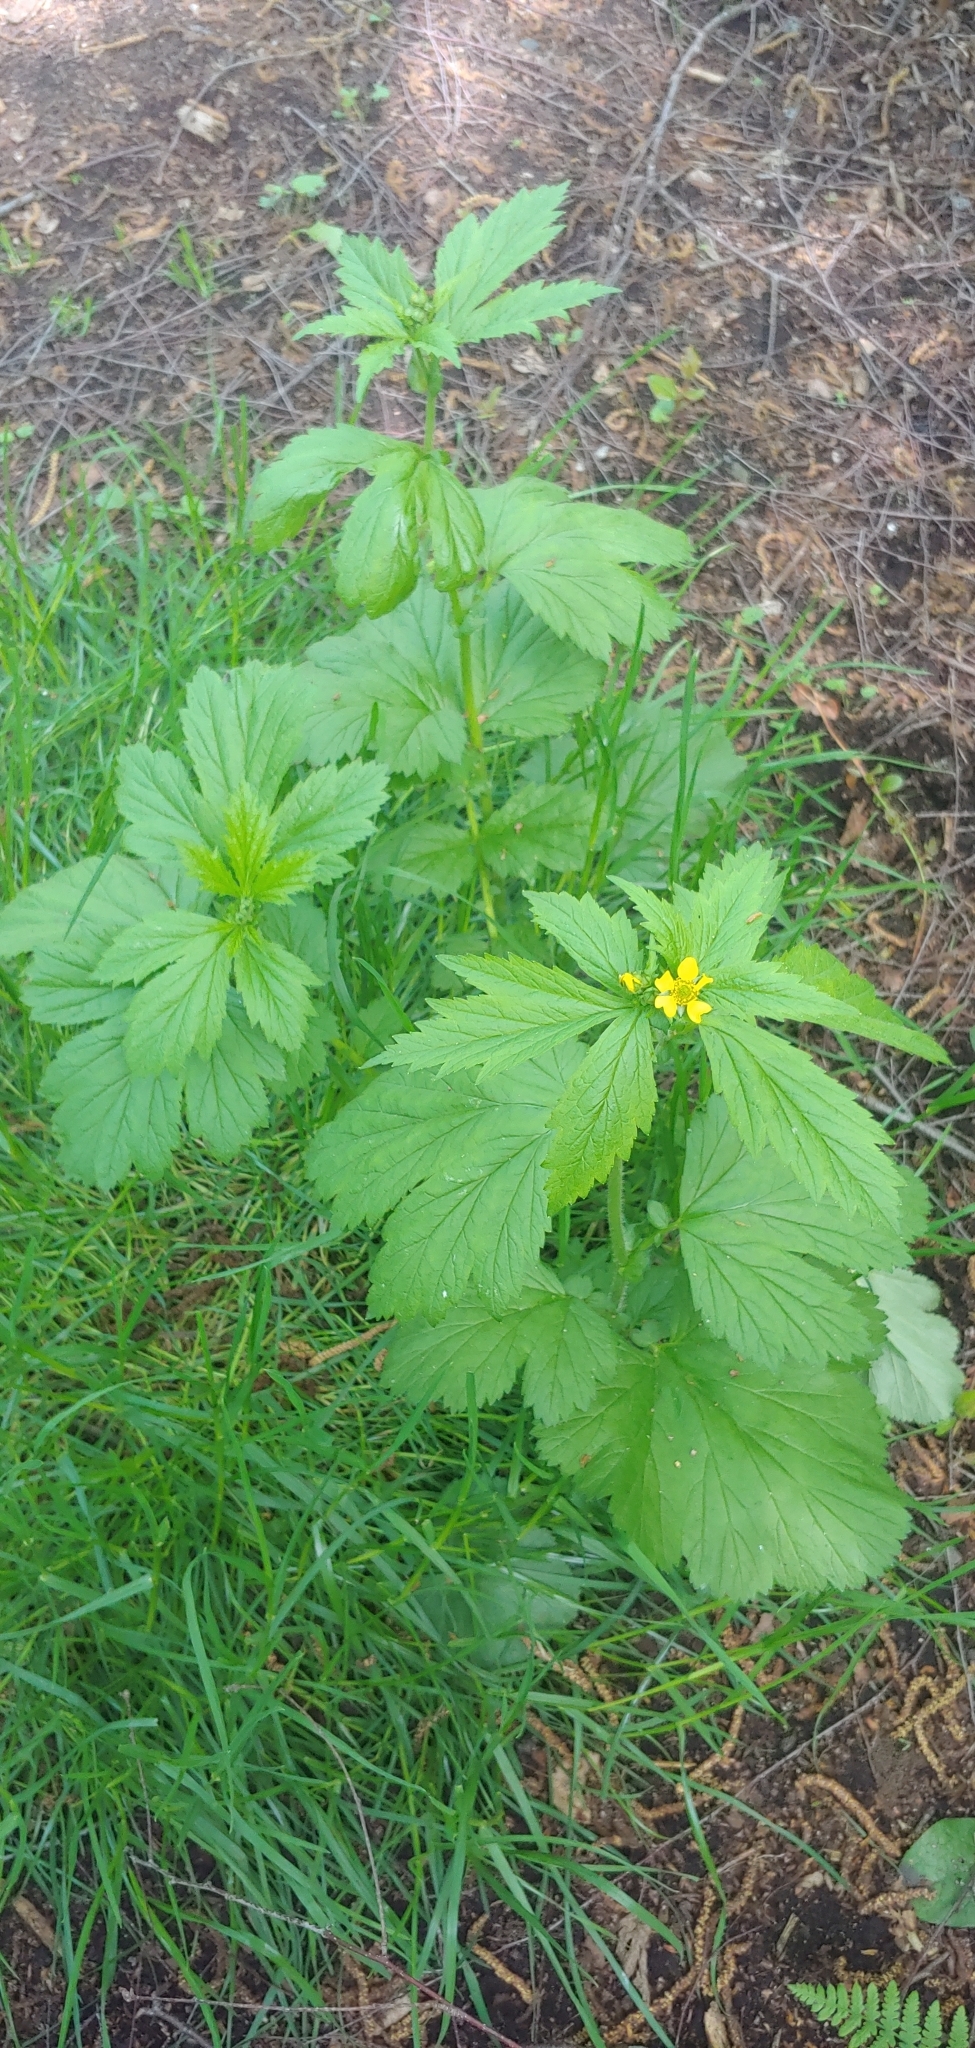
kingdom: Plantae
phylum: Tracheophyta
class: Magnoliopsida
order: Rosales
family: Rosaceae
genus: Geum
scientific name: Geum macrophyllum
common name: Large-leaved avens
